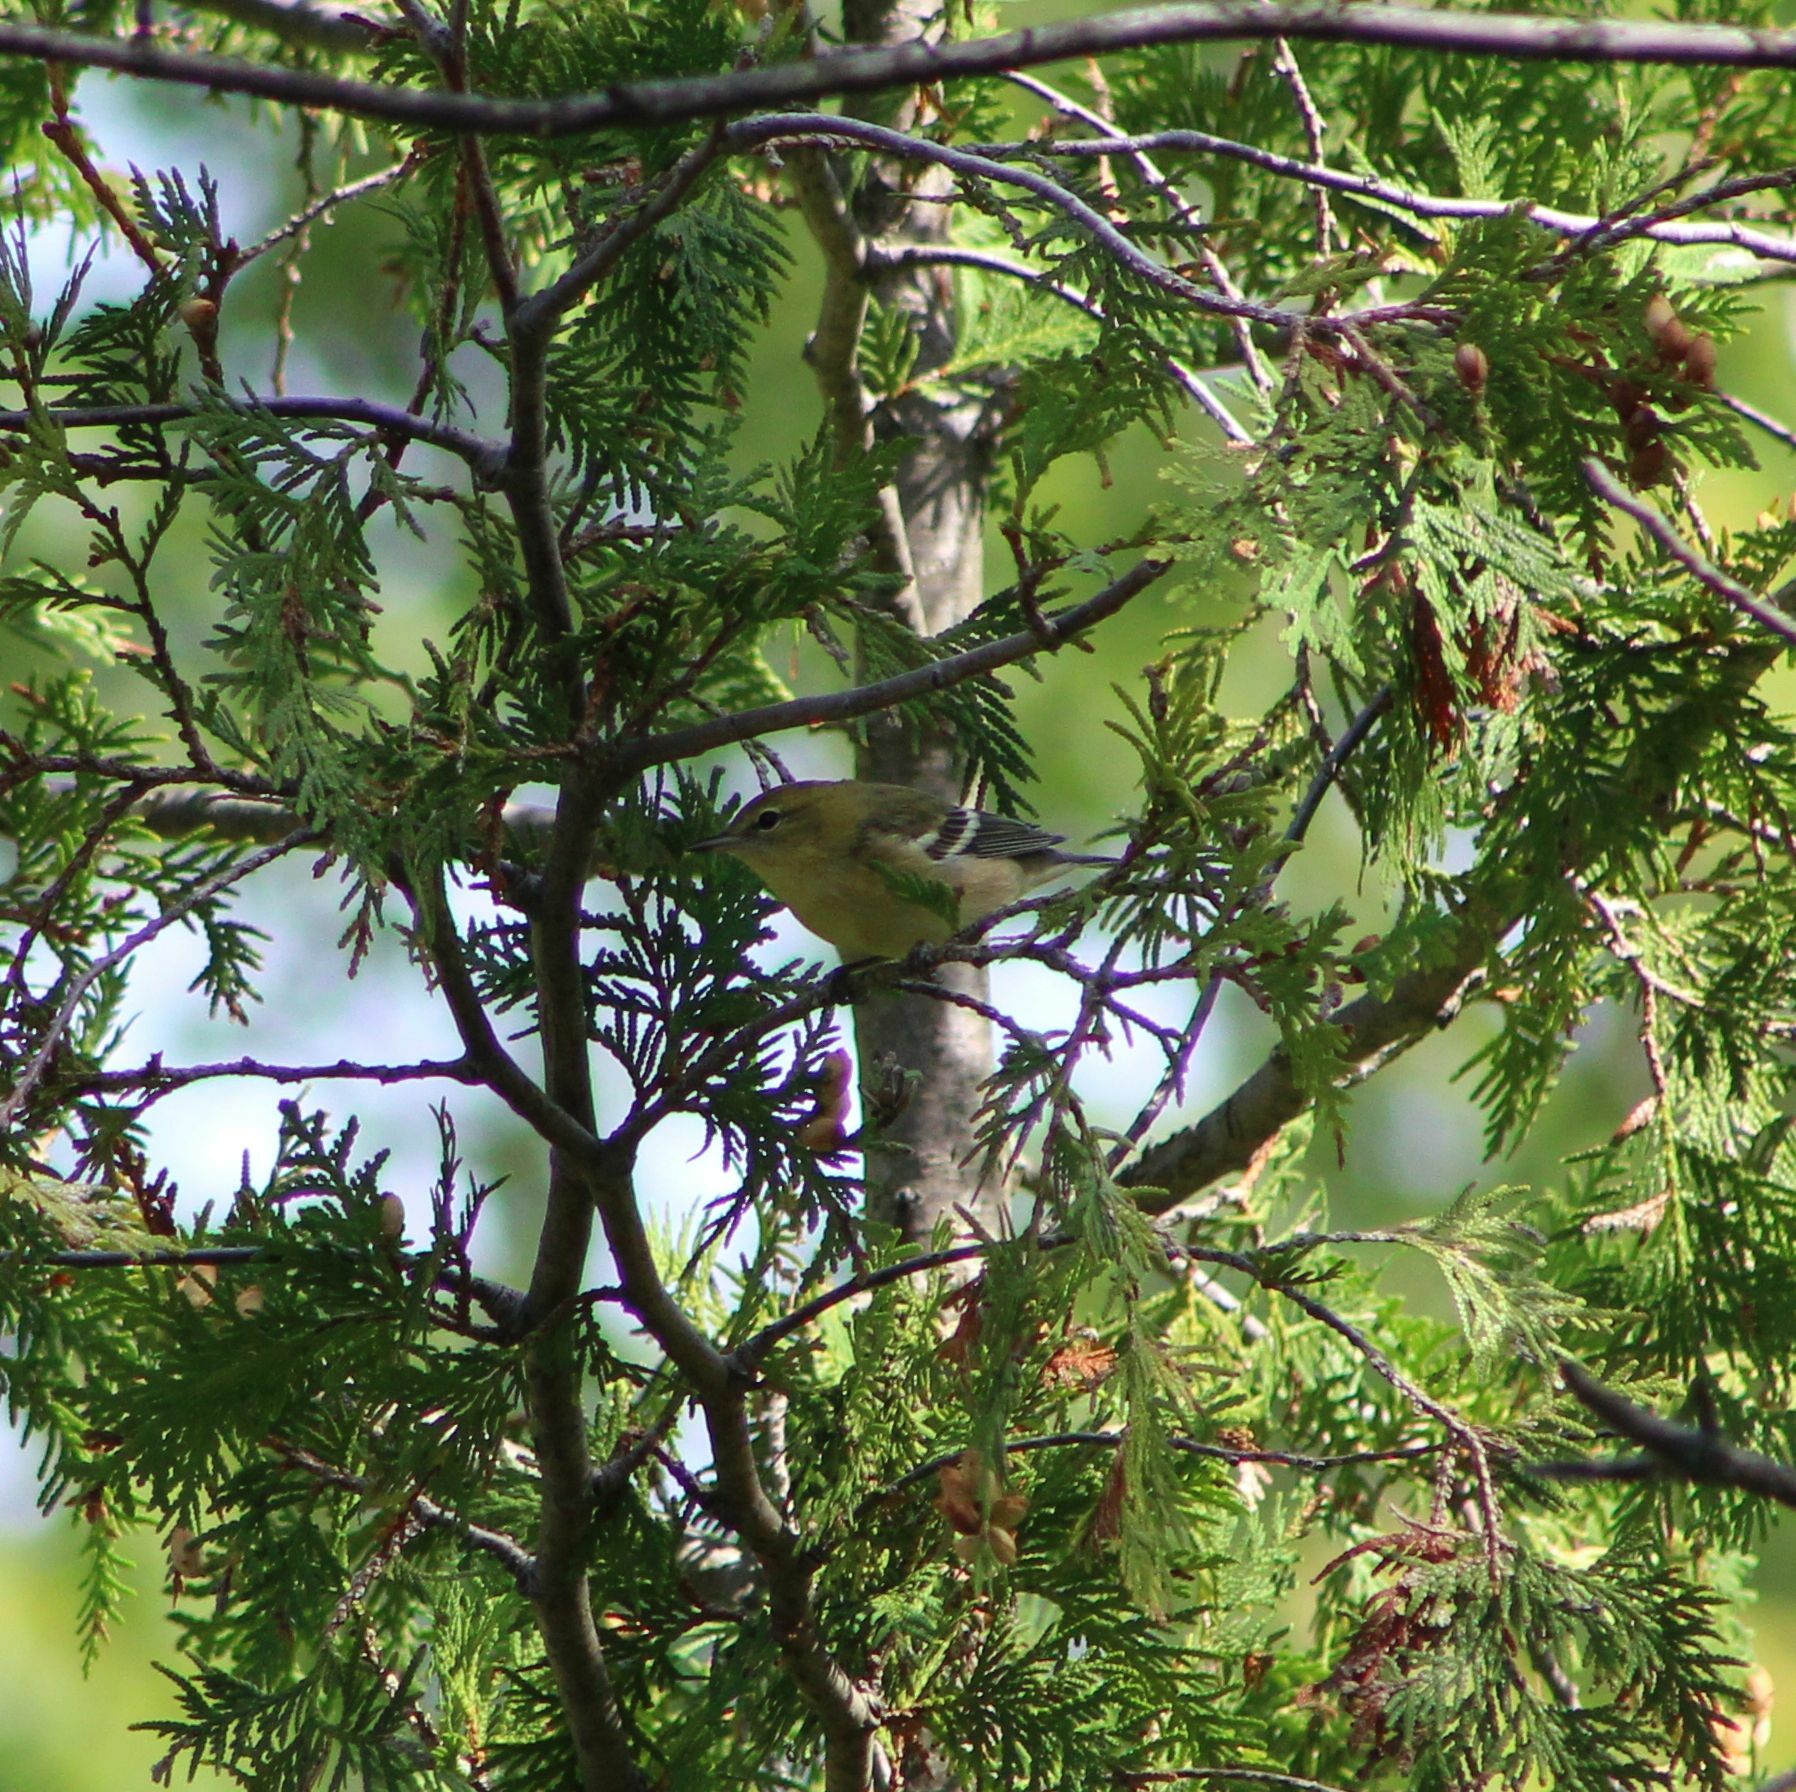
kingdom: Animalia
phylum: Chordata
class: Aves
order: Passeriformes
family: Parulidae
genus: Setophaga
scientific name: Setophaga castanea
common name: Bay-breasted warbler
